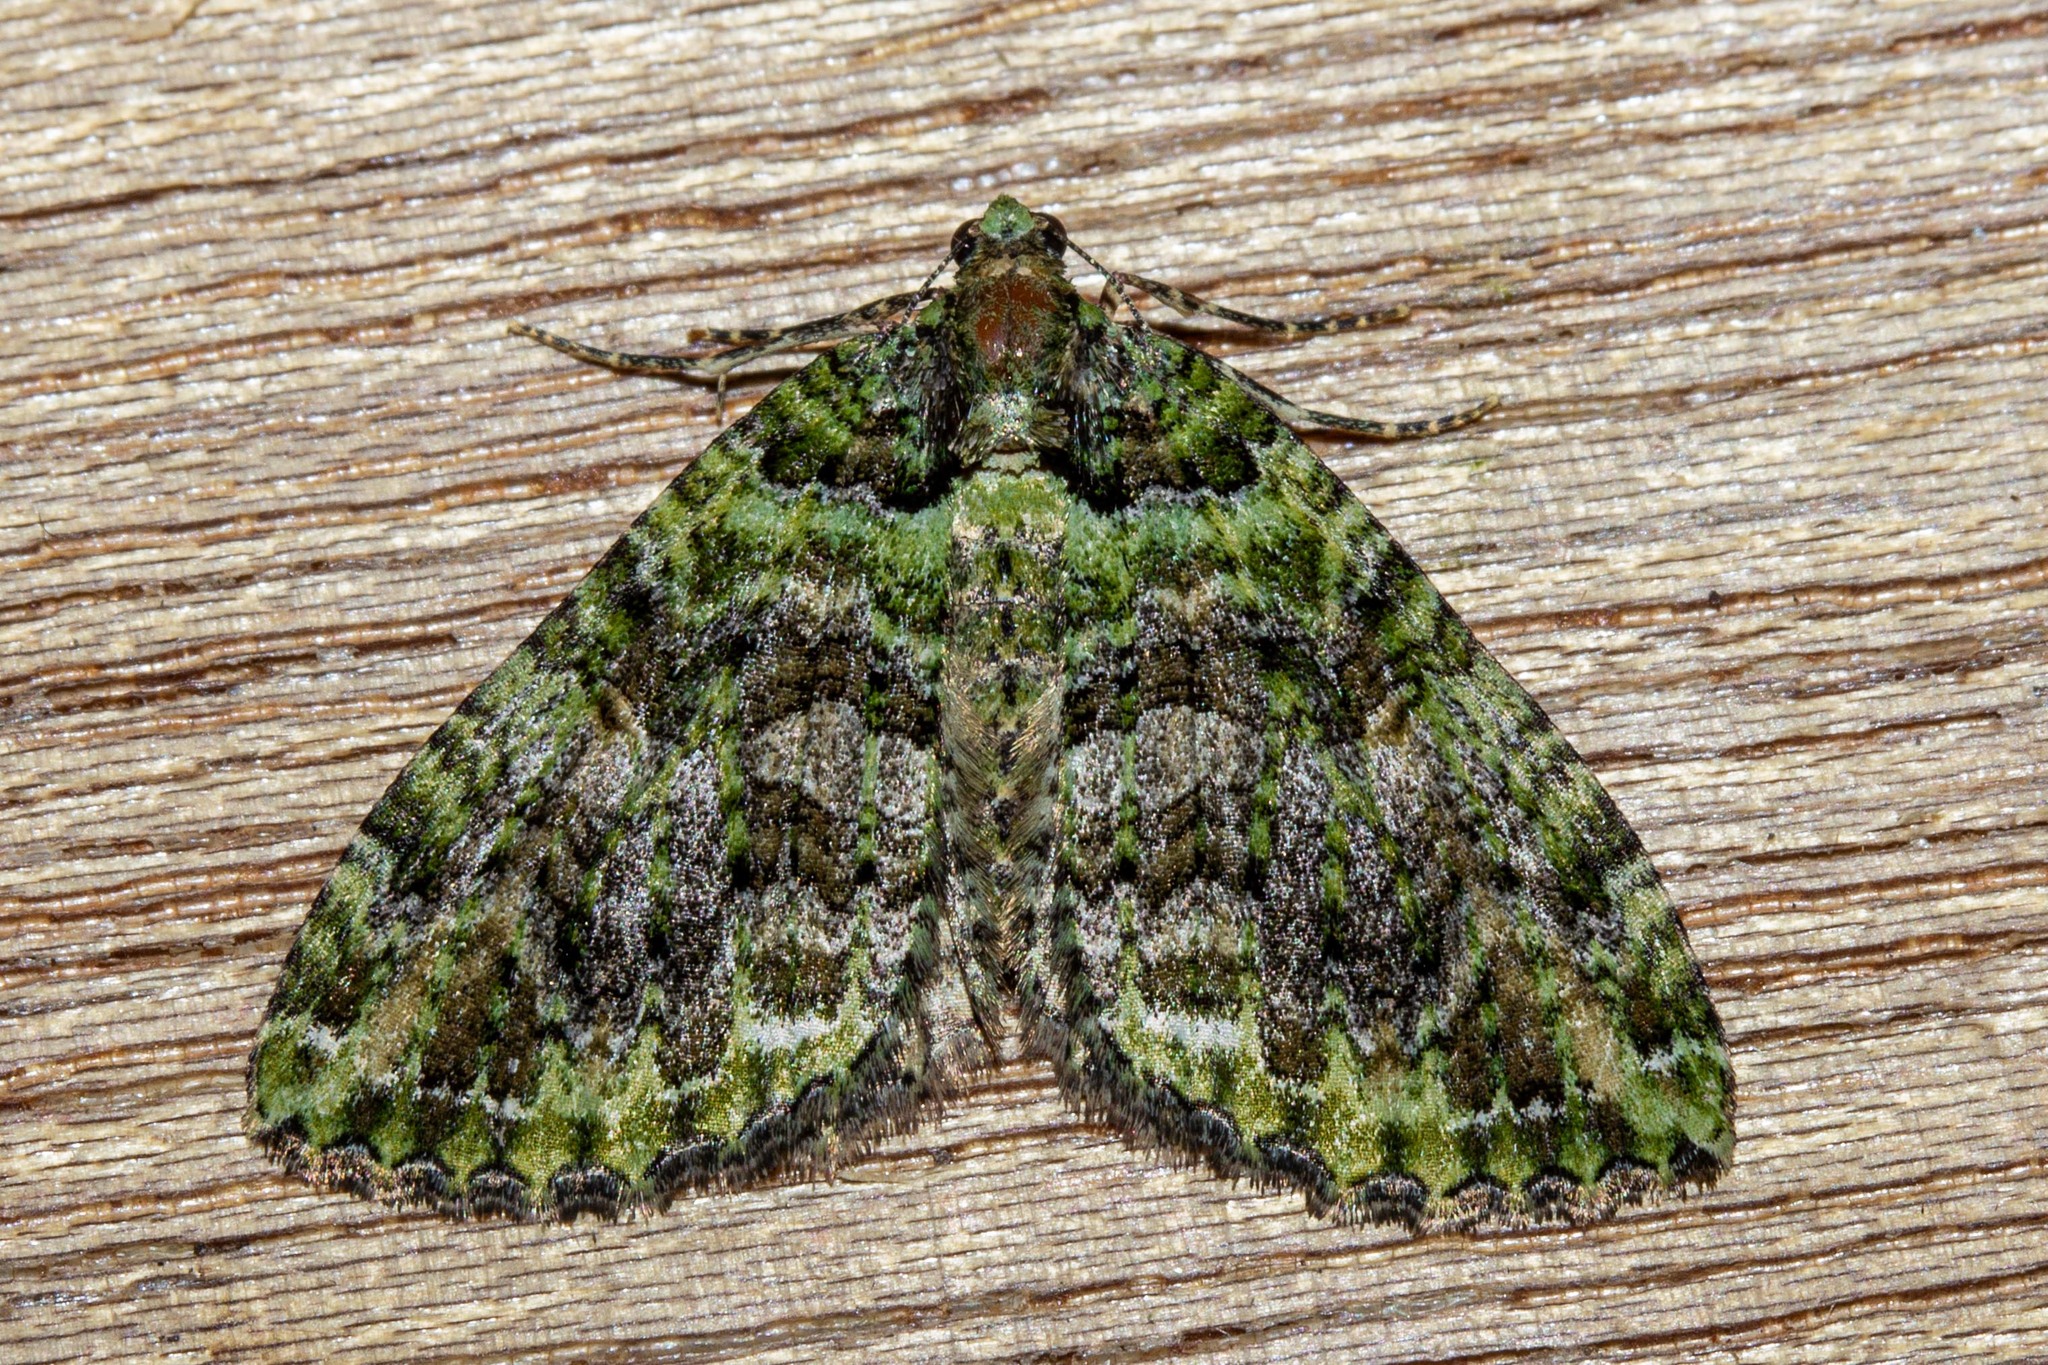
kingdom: Animalia
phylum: Arthropoda
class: Insecta
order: Lepidoptera
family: Geometridae
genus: Austrocidaria
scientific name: Austrocidaria similata
